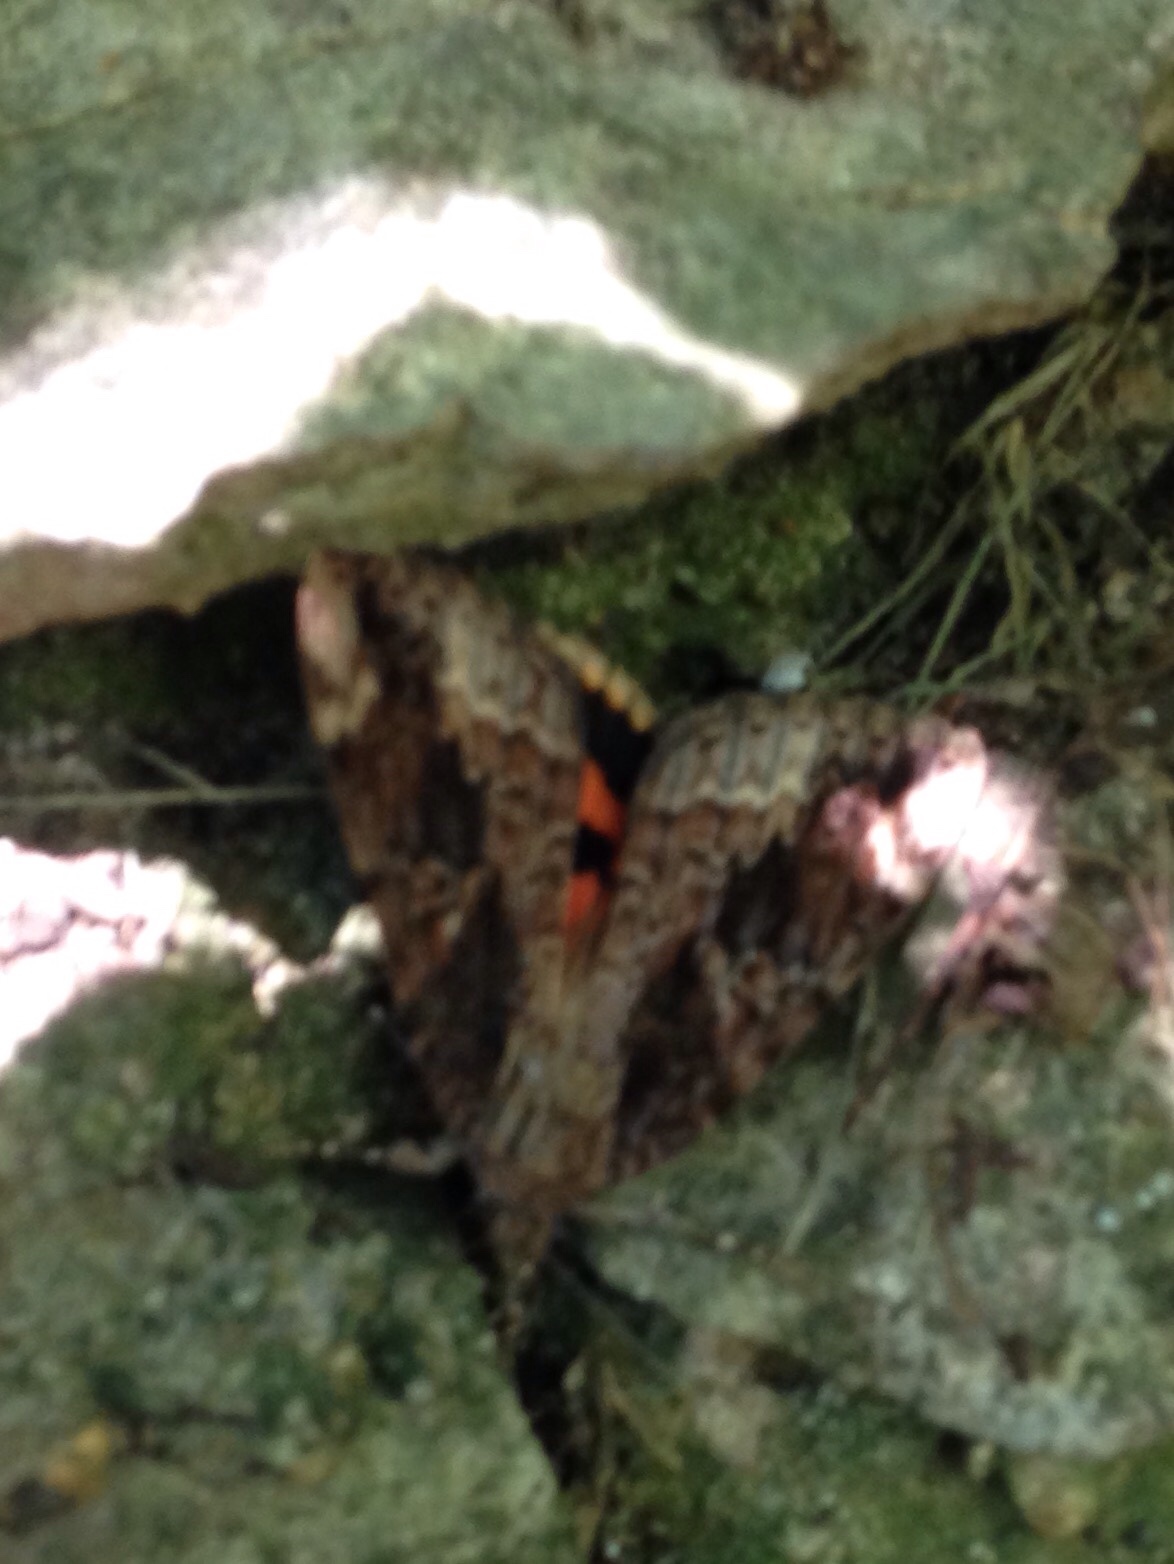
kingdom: Animalia
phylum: Arthropoda
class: Insecta
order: Lepidoptera
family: Erebidae
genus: Catocala
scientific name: Catocala innubens
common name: Betrothed underwing
